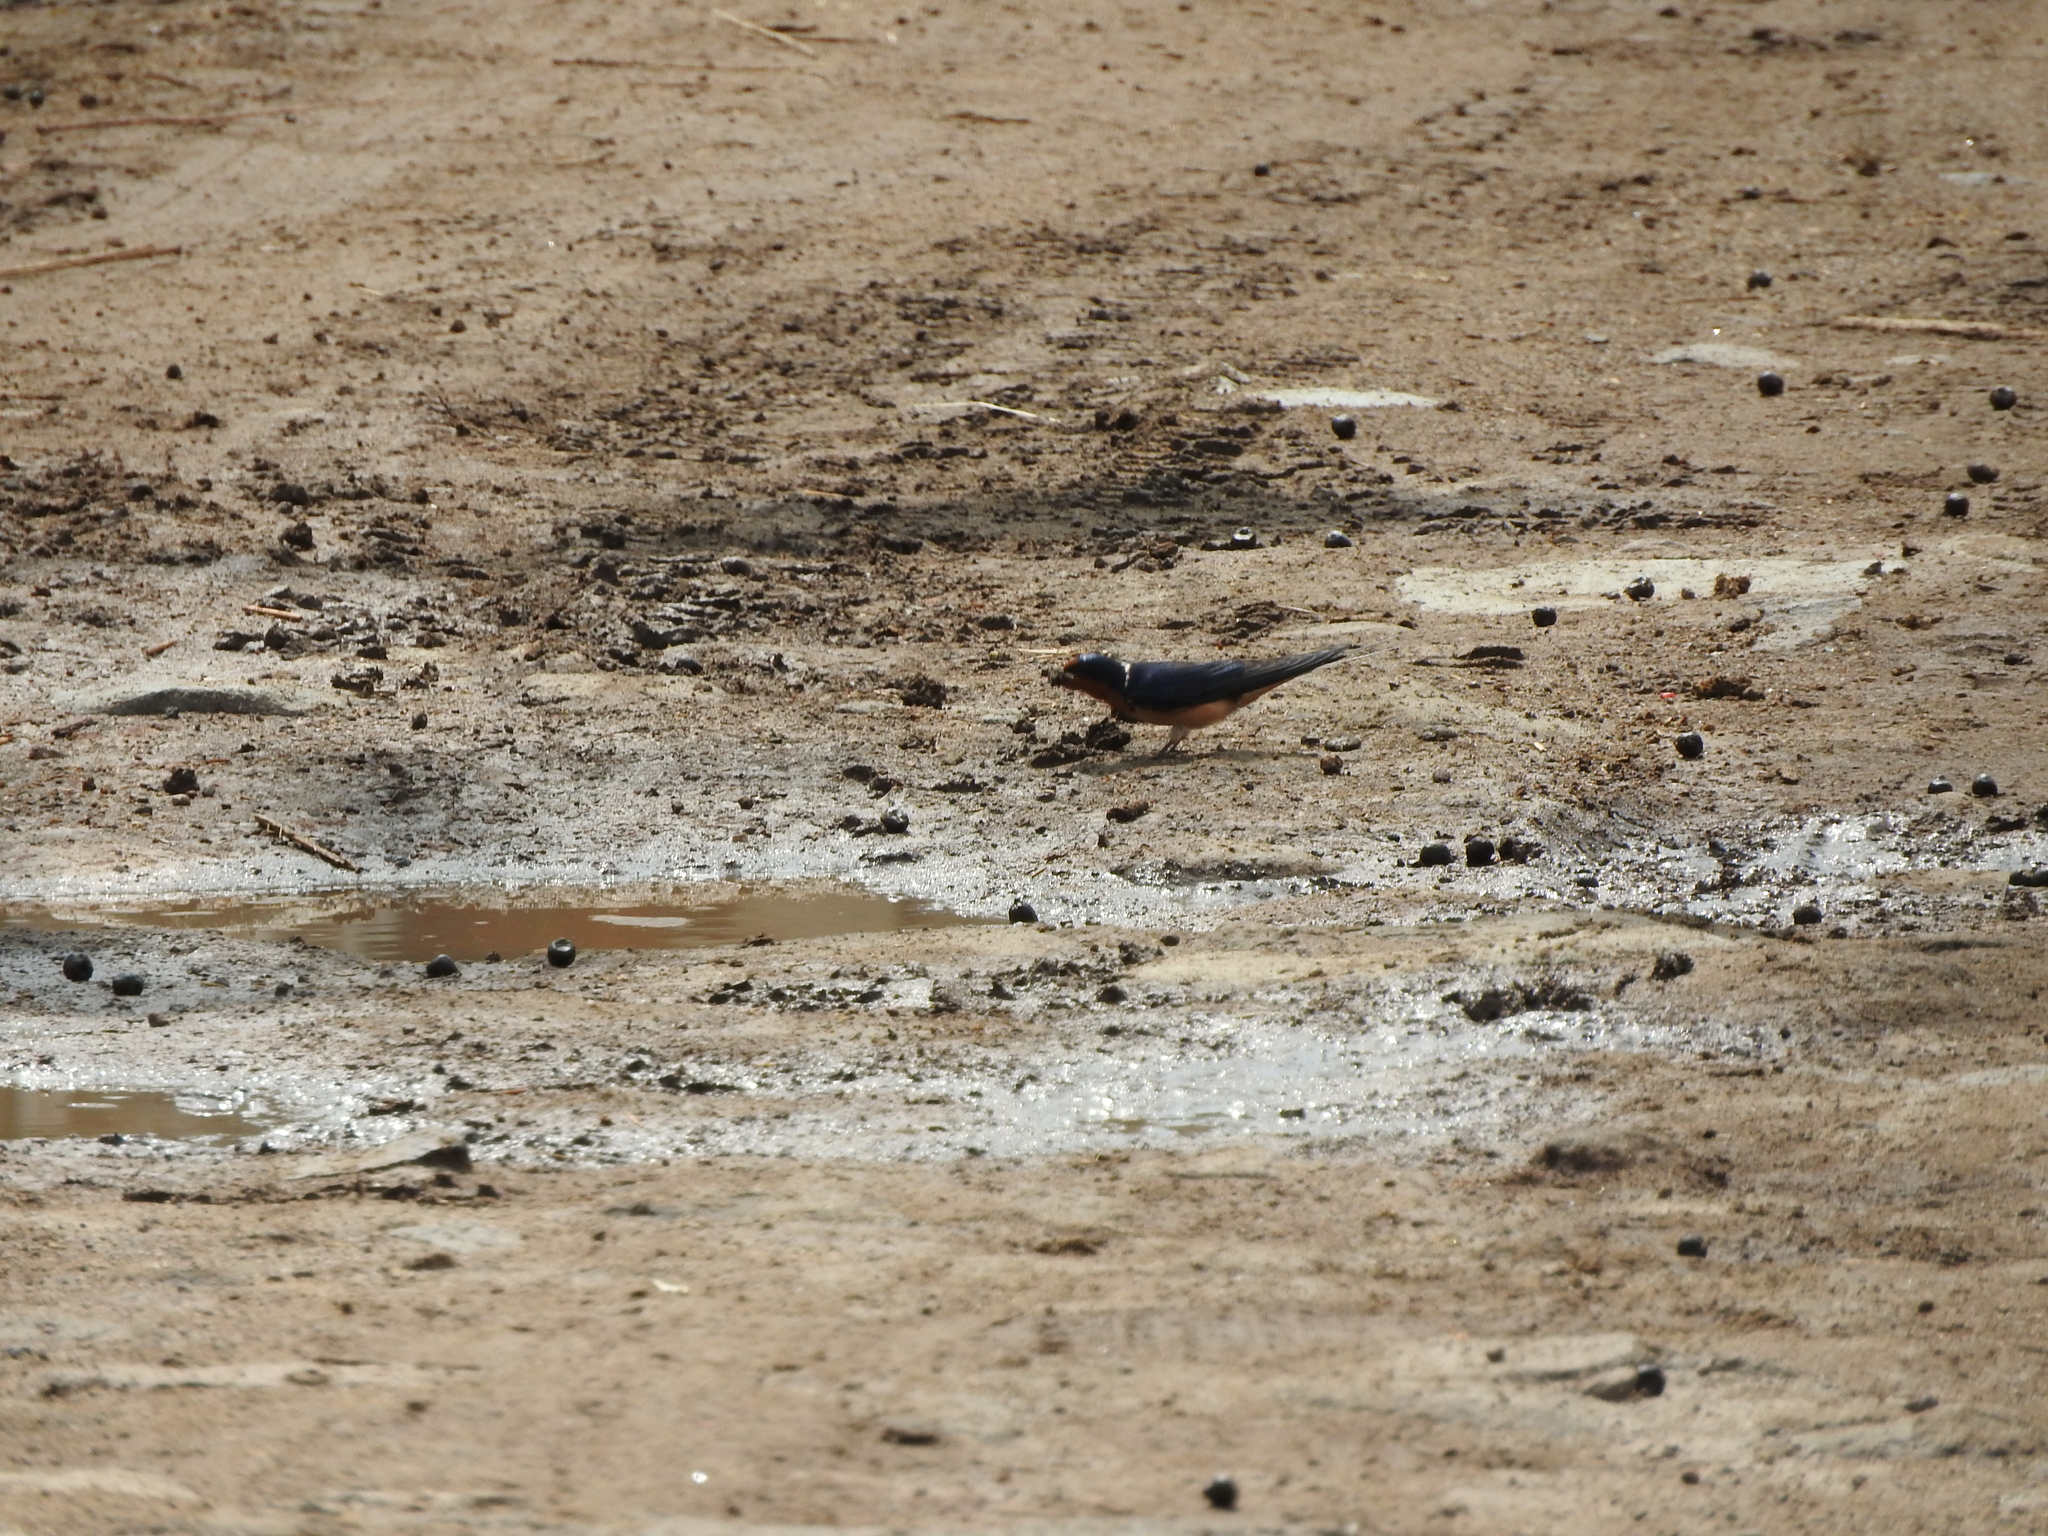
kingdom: Animalia
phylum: Chordata
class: Aves
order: Passeriformes
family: Hirundinidae
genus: Hirundo
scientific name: Hirundo rustica
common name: Barn swallow
